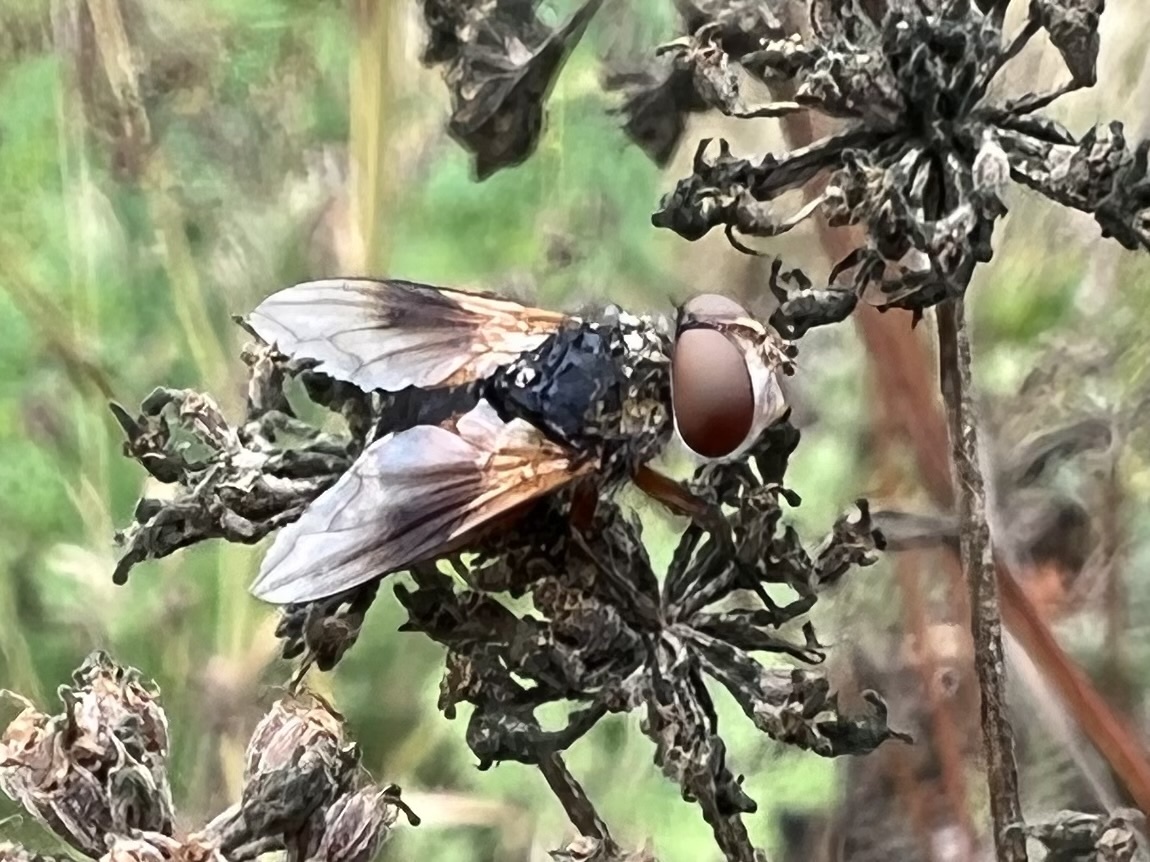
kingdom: Animalia
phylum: Arthropoda
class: Insecta
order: Diptera
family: Tachinidae
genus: Ectophasia
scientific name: Ectophasia crassipennis
